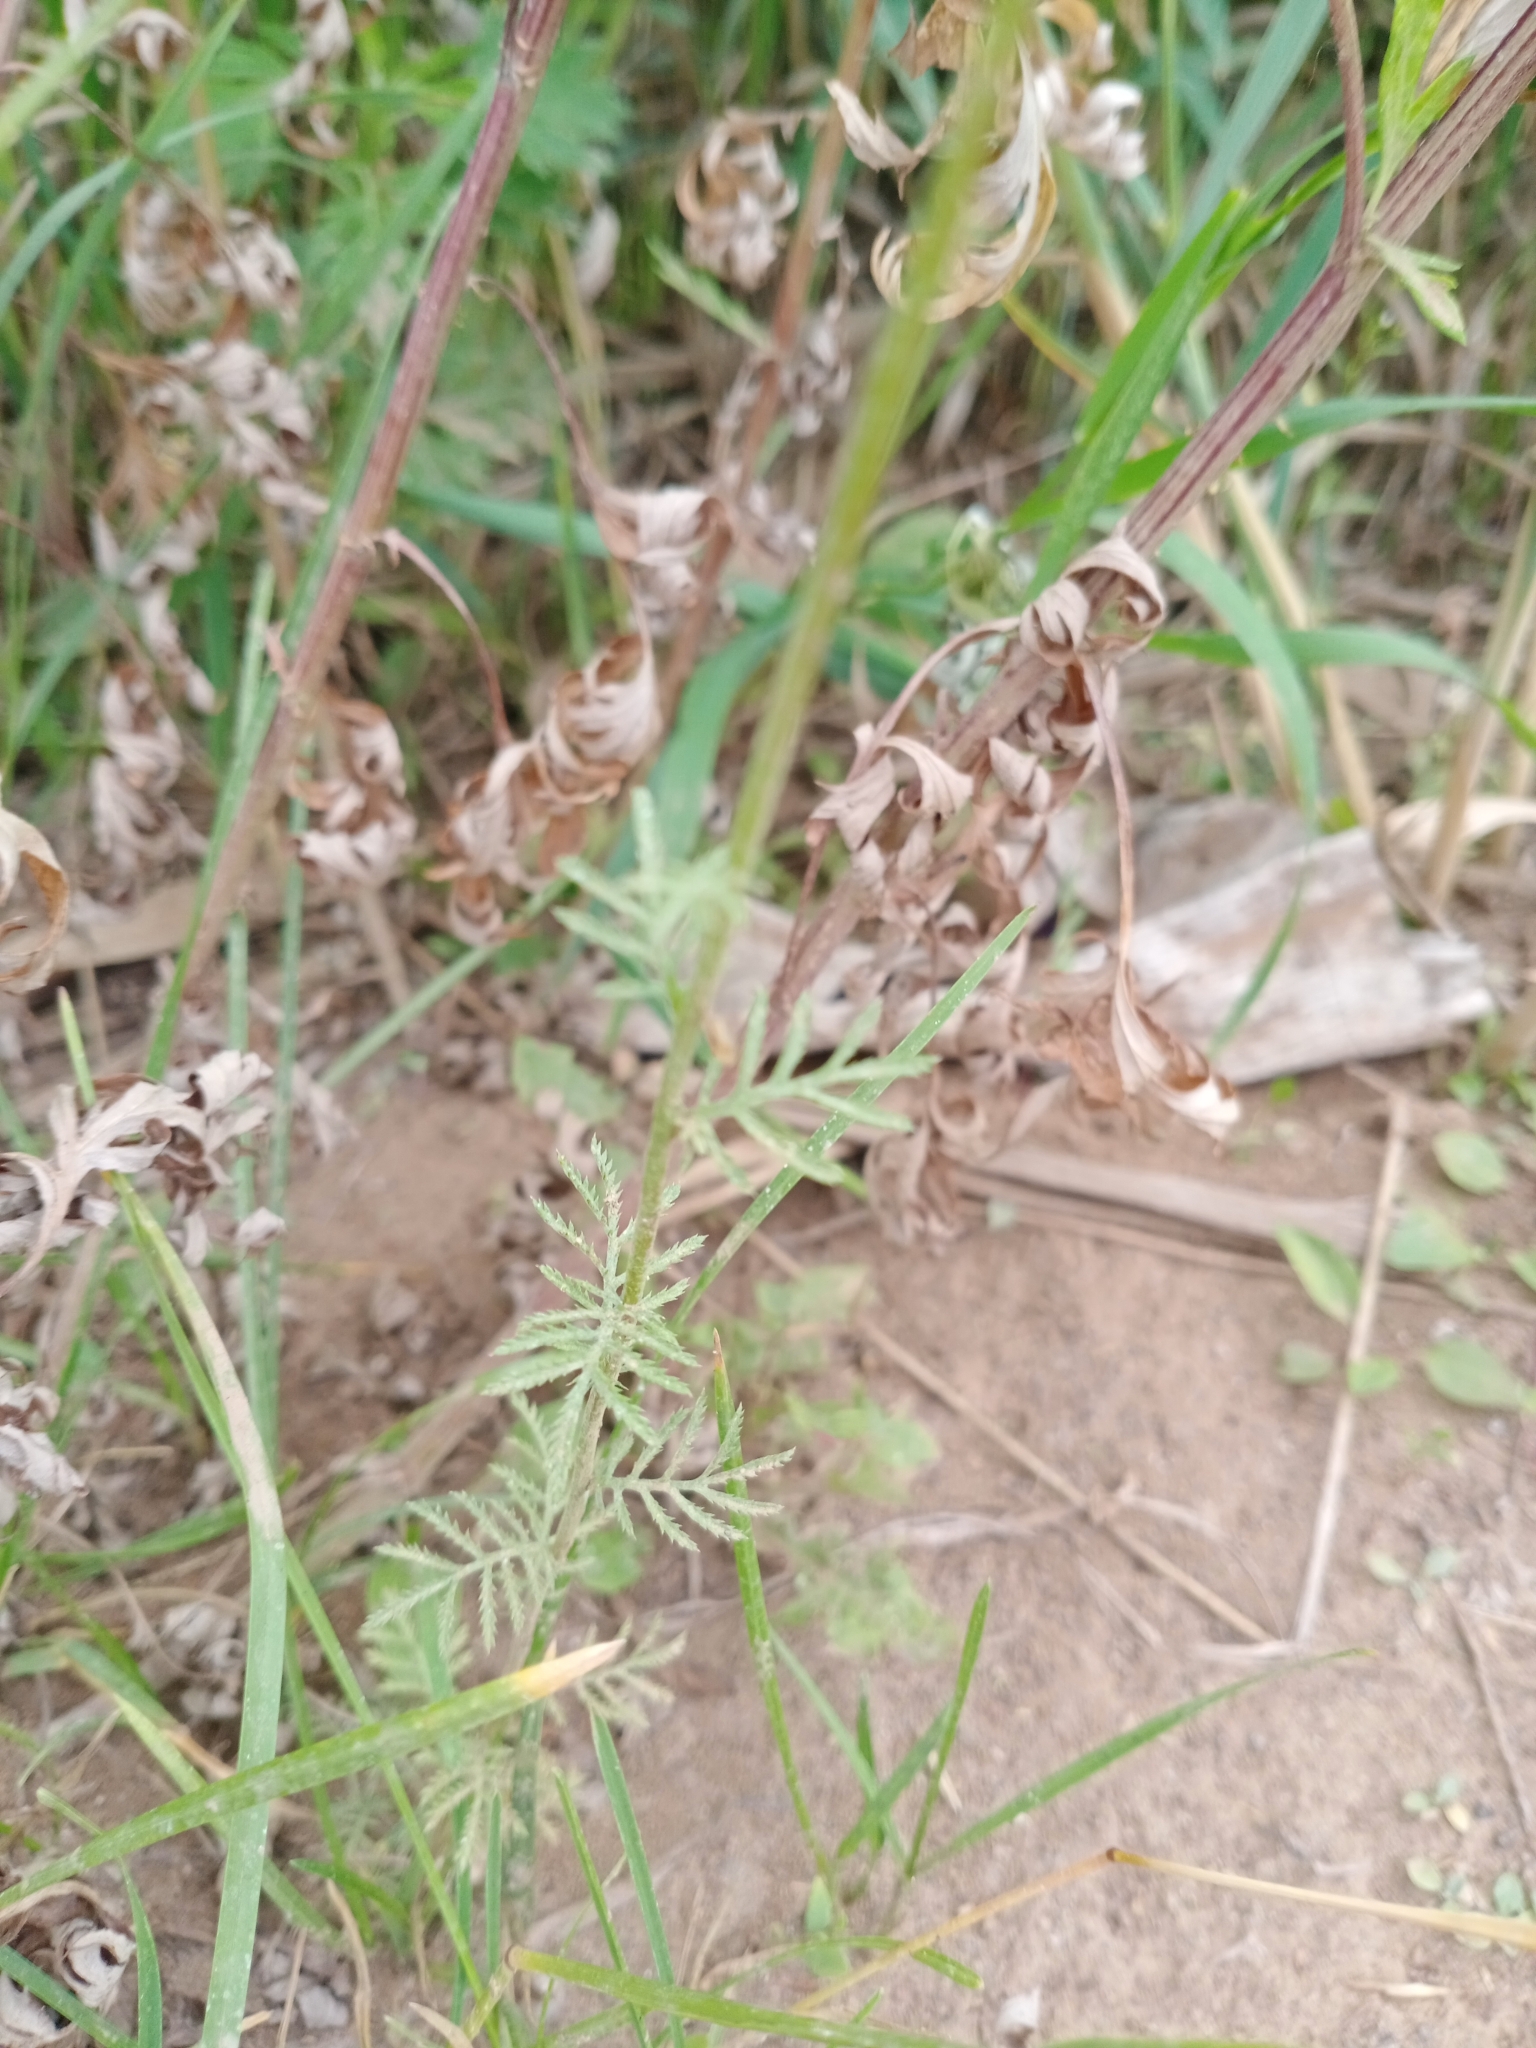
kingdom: Plantae
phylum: Tracheophyta
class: Magnoliopsida
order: Asterales
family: Asteraceae
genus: Cota
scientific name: Cota tinctoria
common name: Golden chamomile
